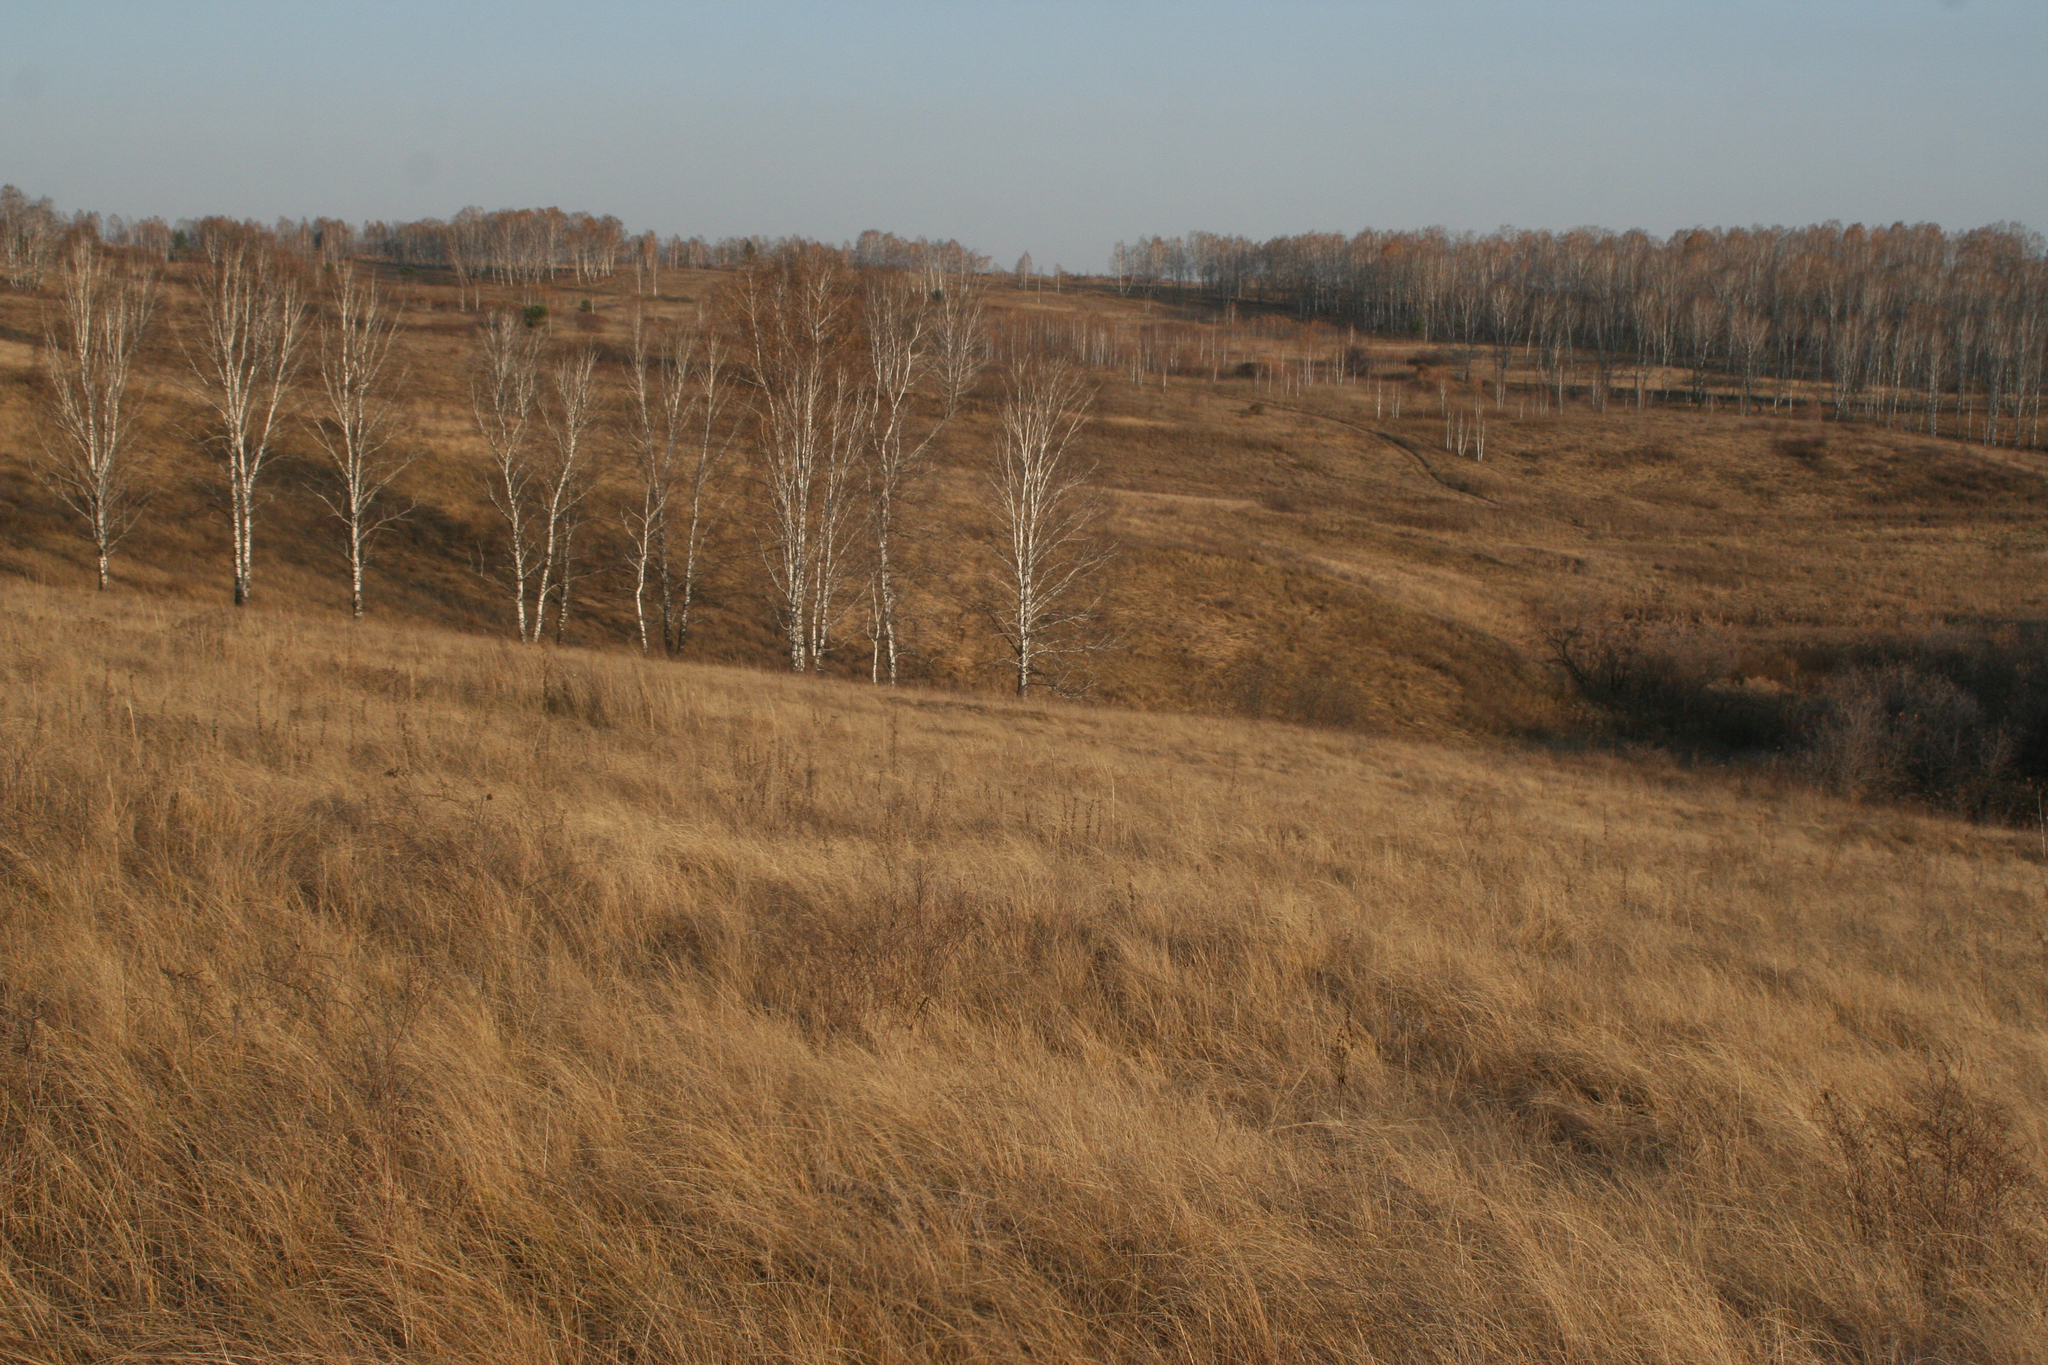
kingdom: Plantae
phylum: Tracheophyta
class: Magnoliopsida
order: Fagales
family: Betulaceae
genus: Betula
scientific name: Betula pendula
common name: Silver birch
